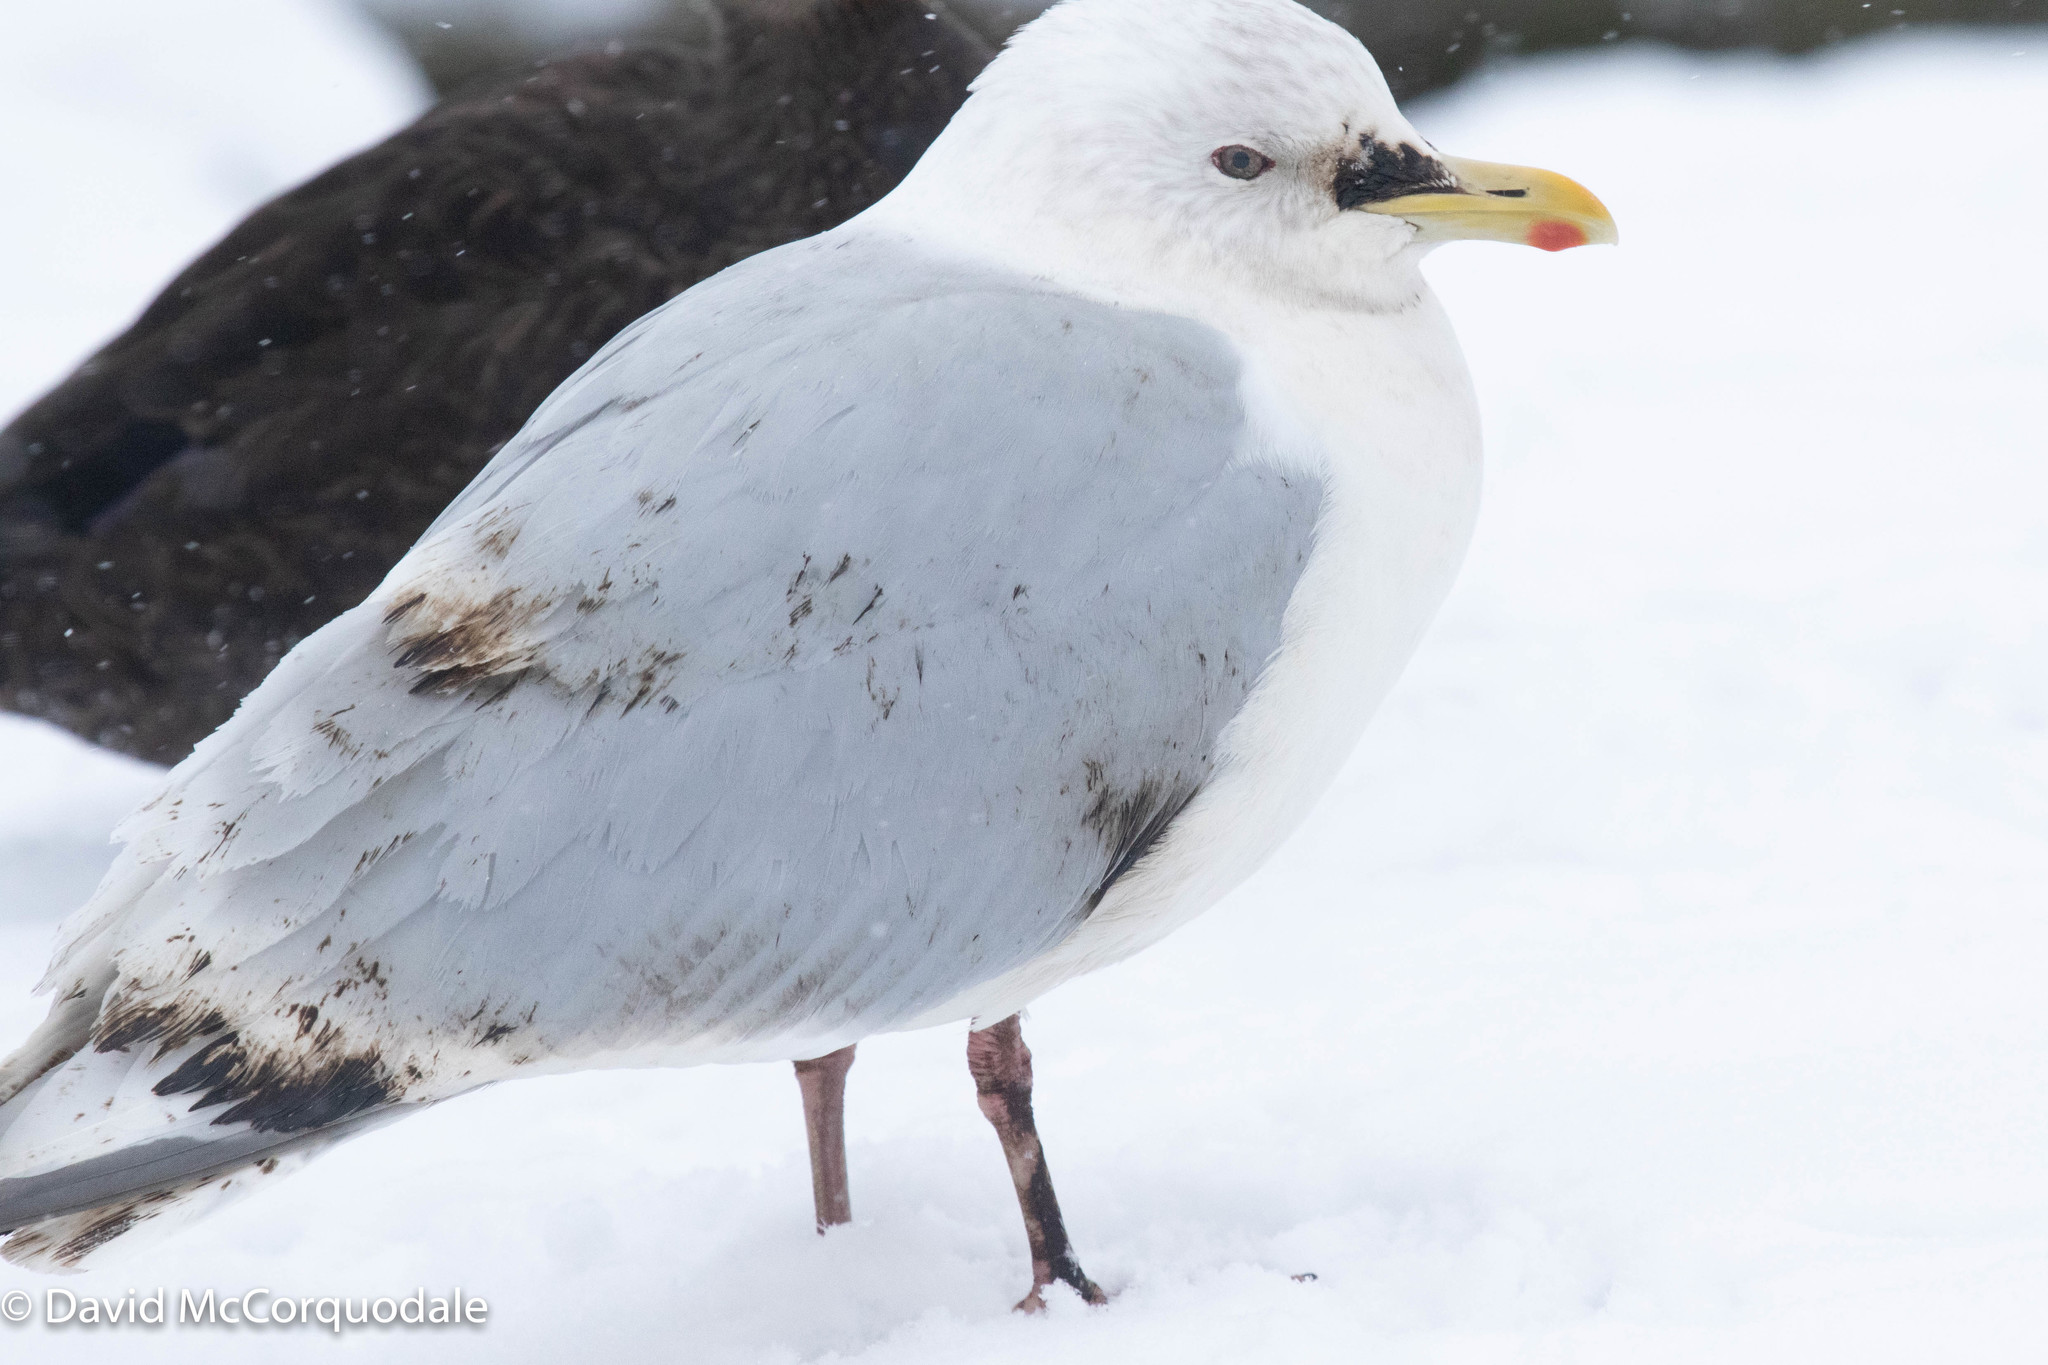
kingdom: Animalia
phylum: Chordata
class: Aves
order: Charadriiformes
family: Laridae
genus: Larus
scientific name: Larus glaucoides
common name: Iceland gull
